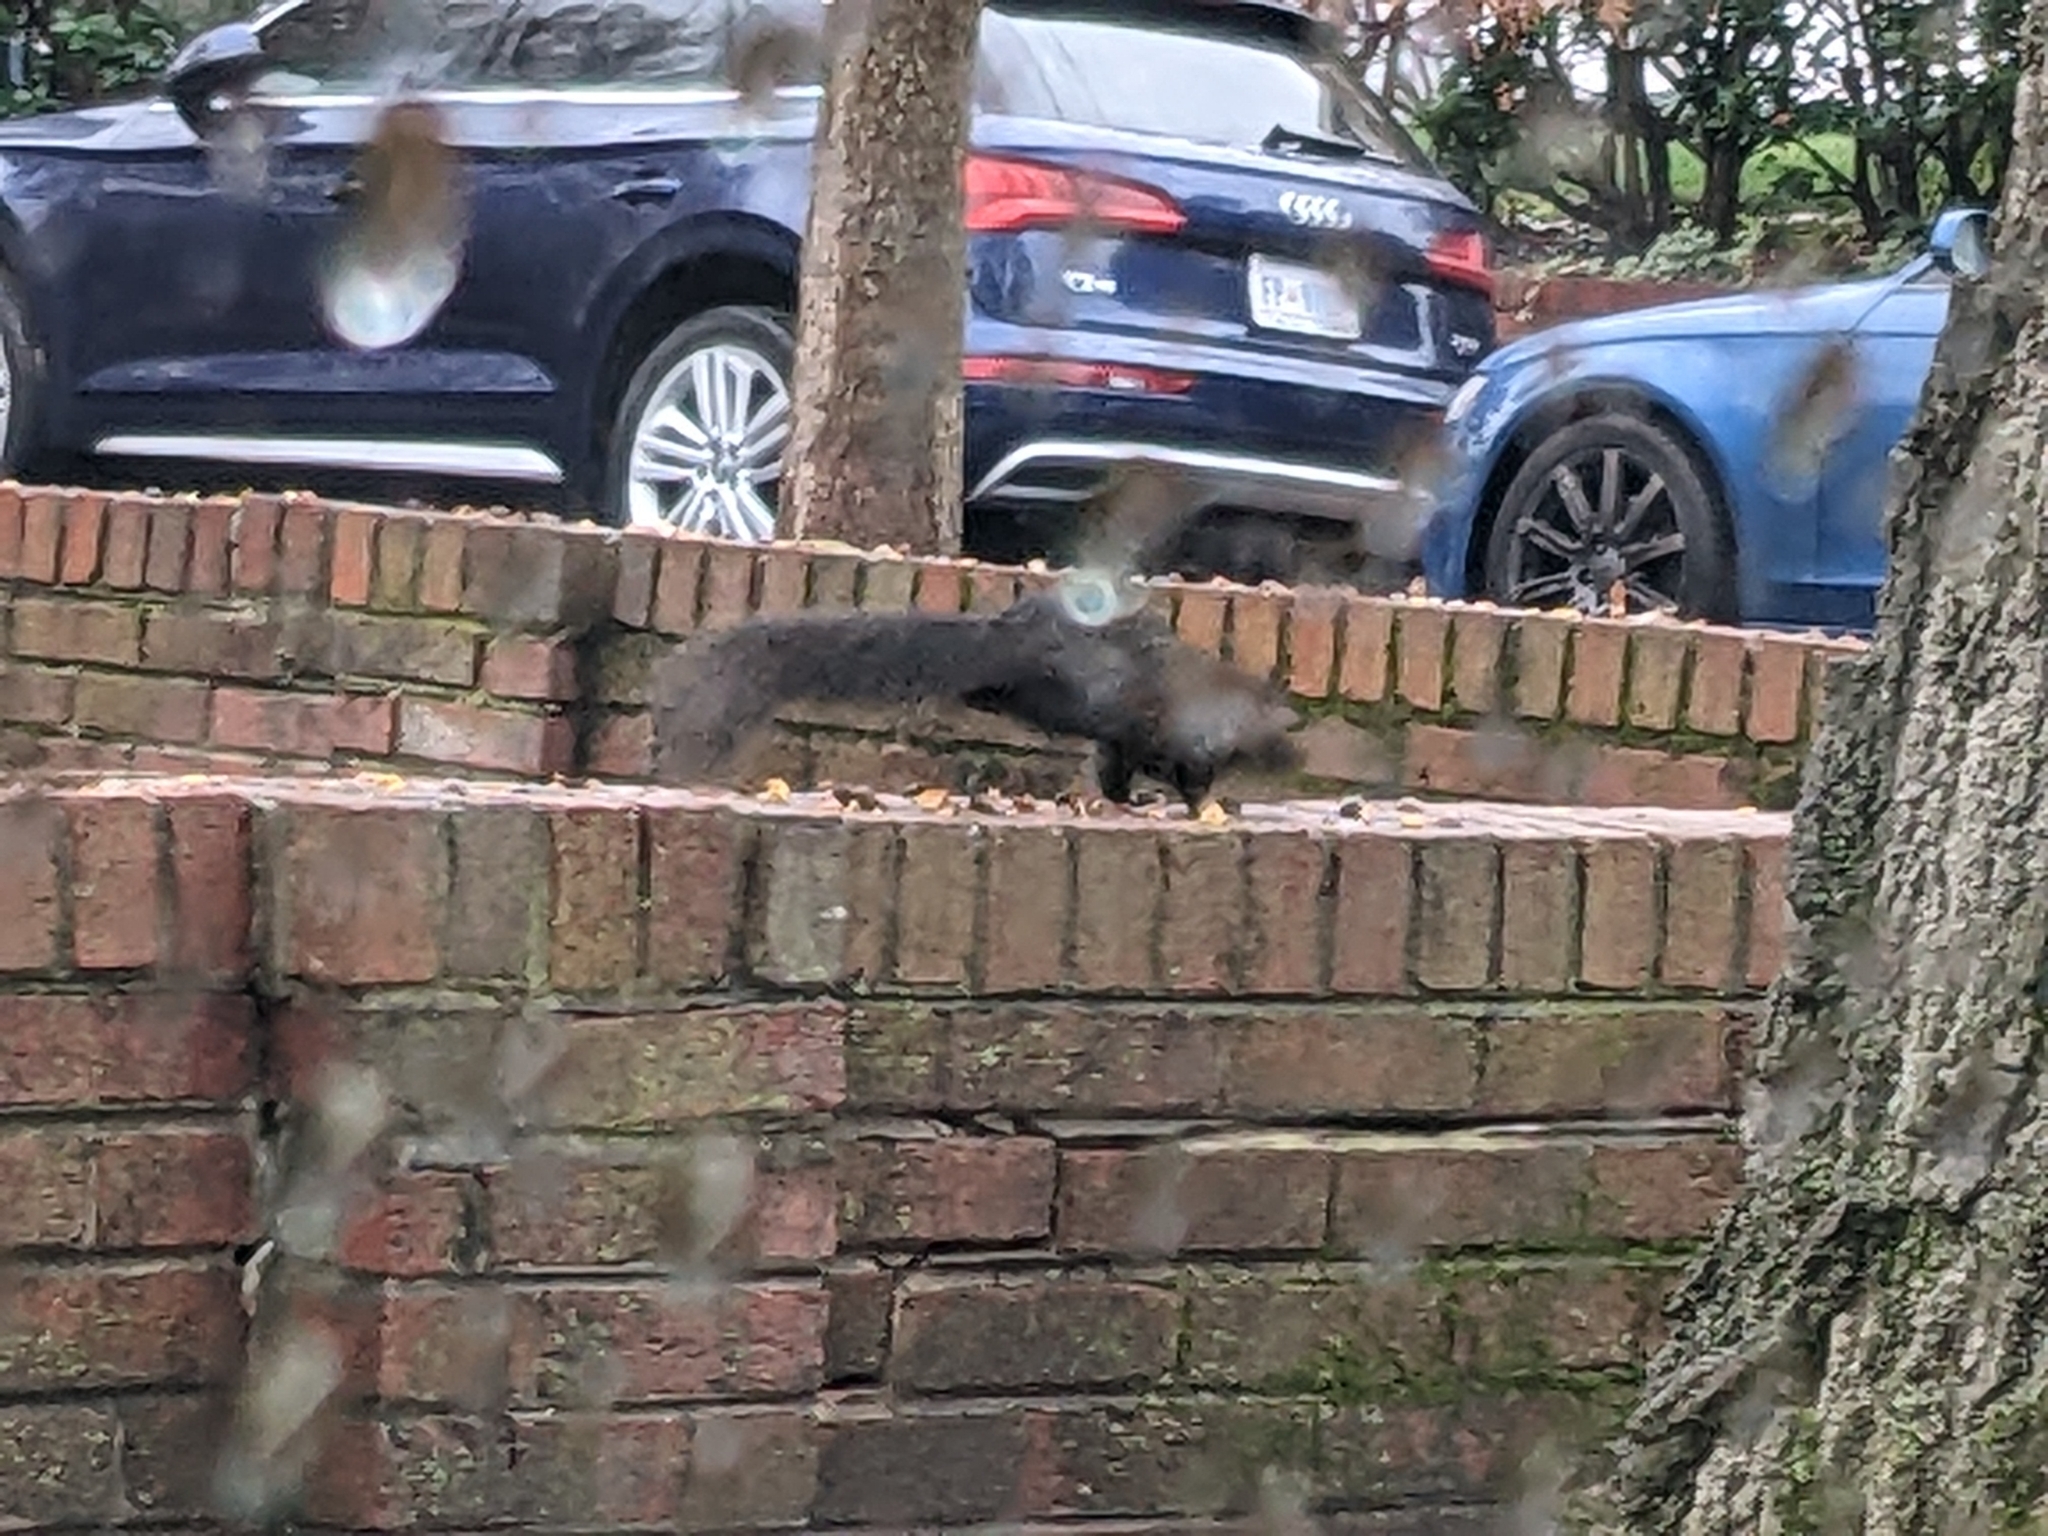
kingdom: Animalia
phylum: Chordata
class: Mammalia
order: Rodentia
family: Sciuridae
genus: Sciurus
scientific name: Sciurus carolinensis
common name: Eastern gray squirrel
